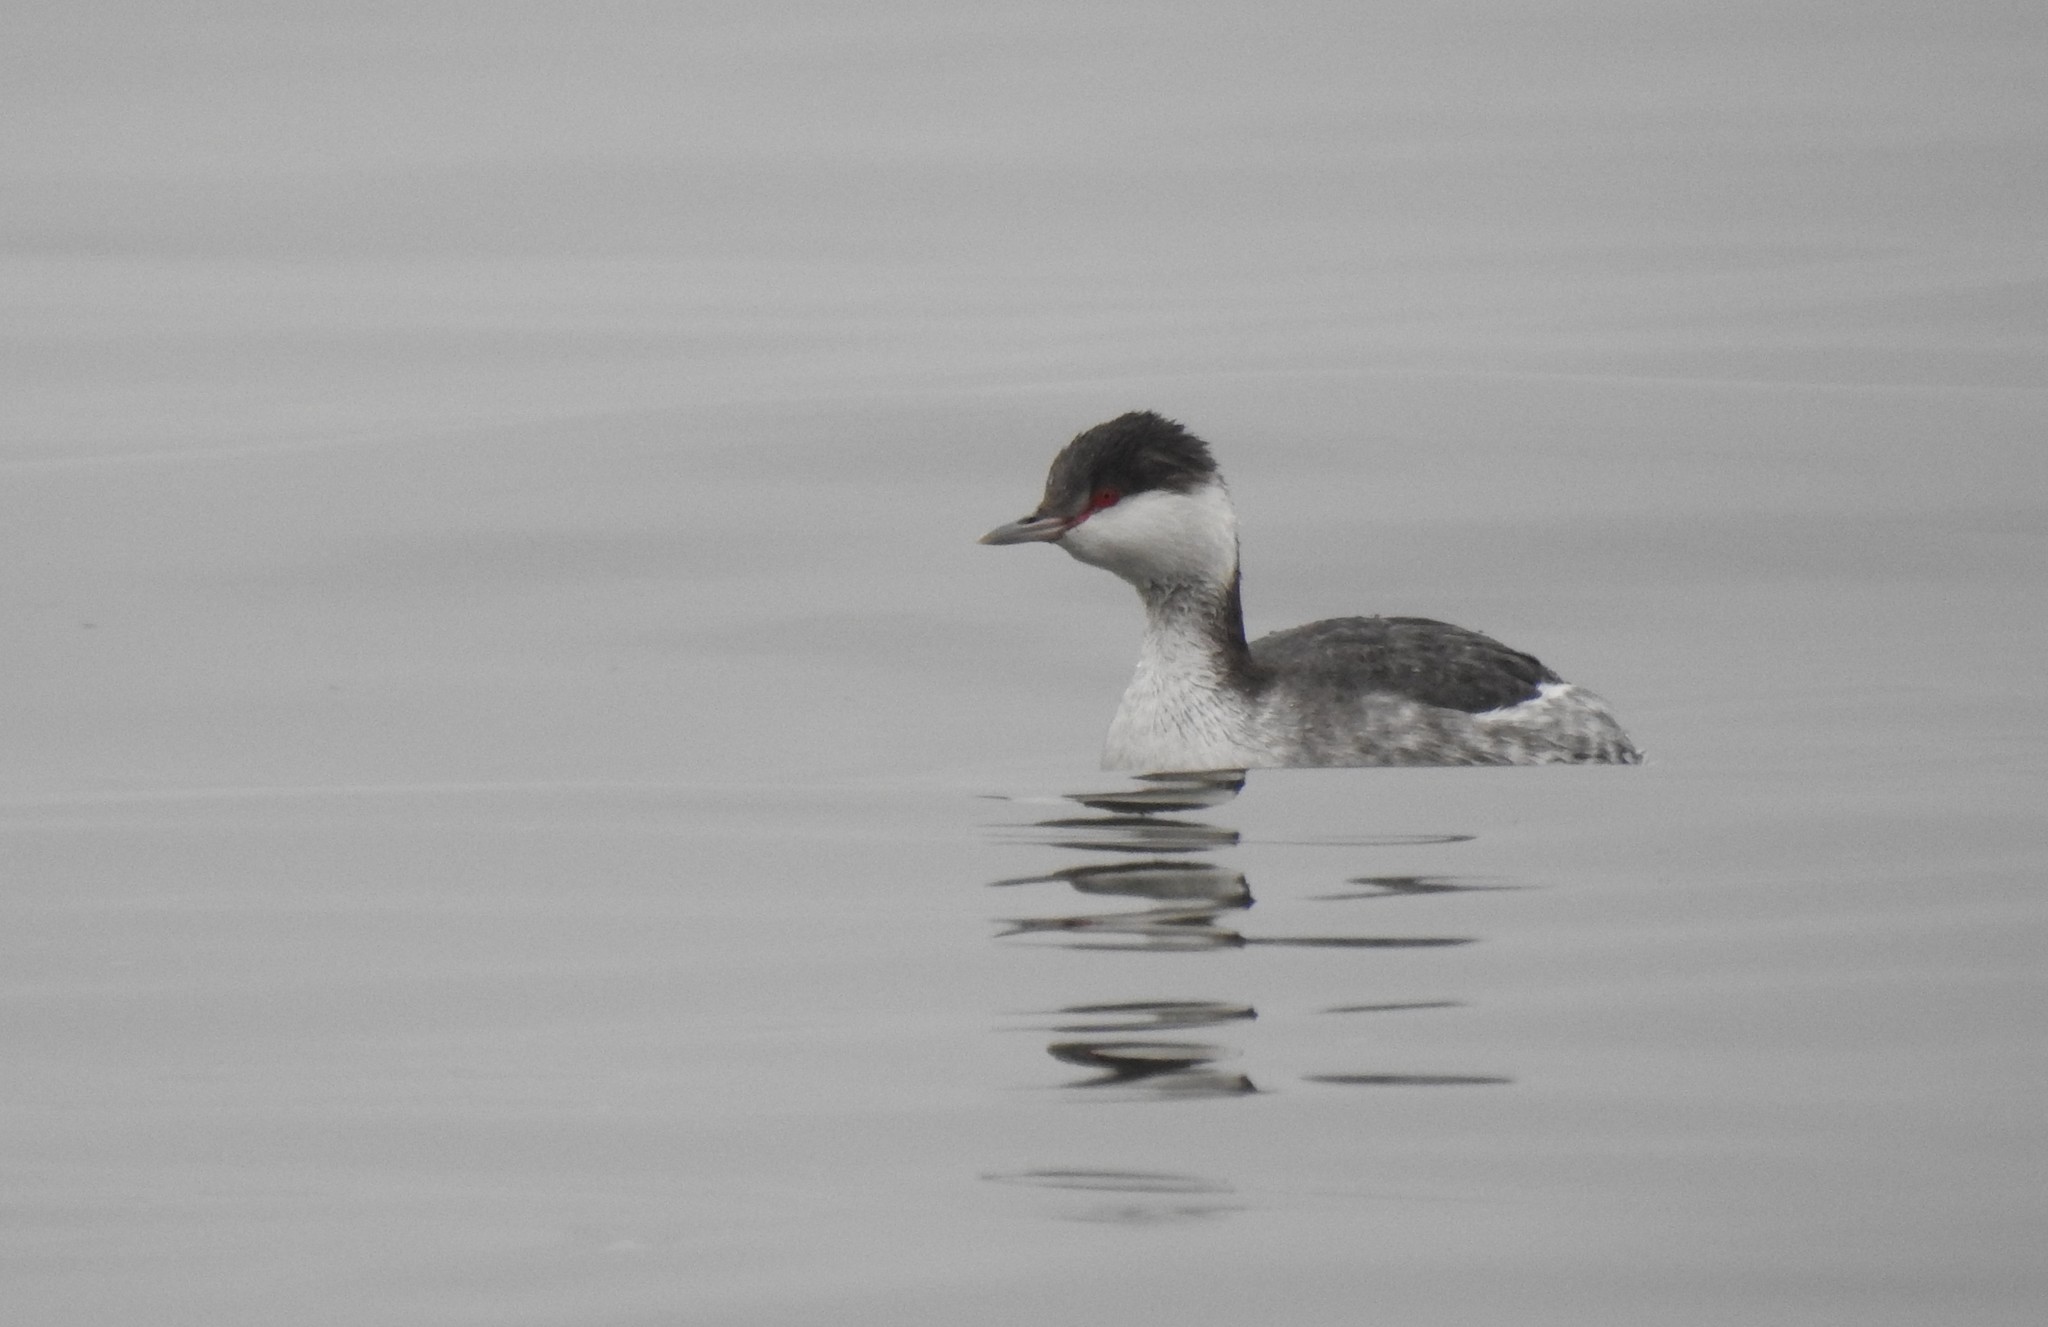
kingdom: Animalia
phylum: Chordata
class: Aves
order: Podicipediformes
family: Podicipedidae
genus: Podiceps
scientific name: Podiceps auritus
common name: Horned grebe
